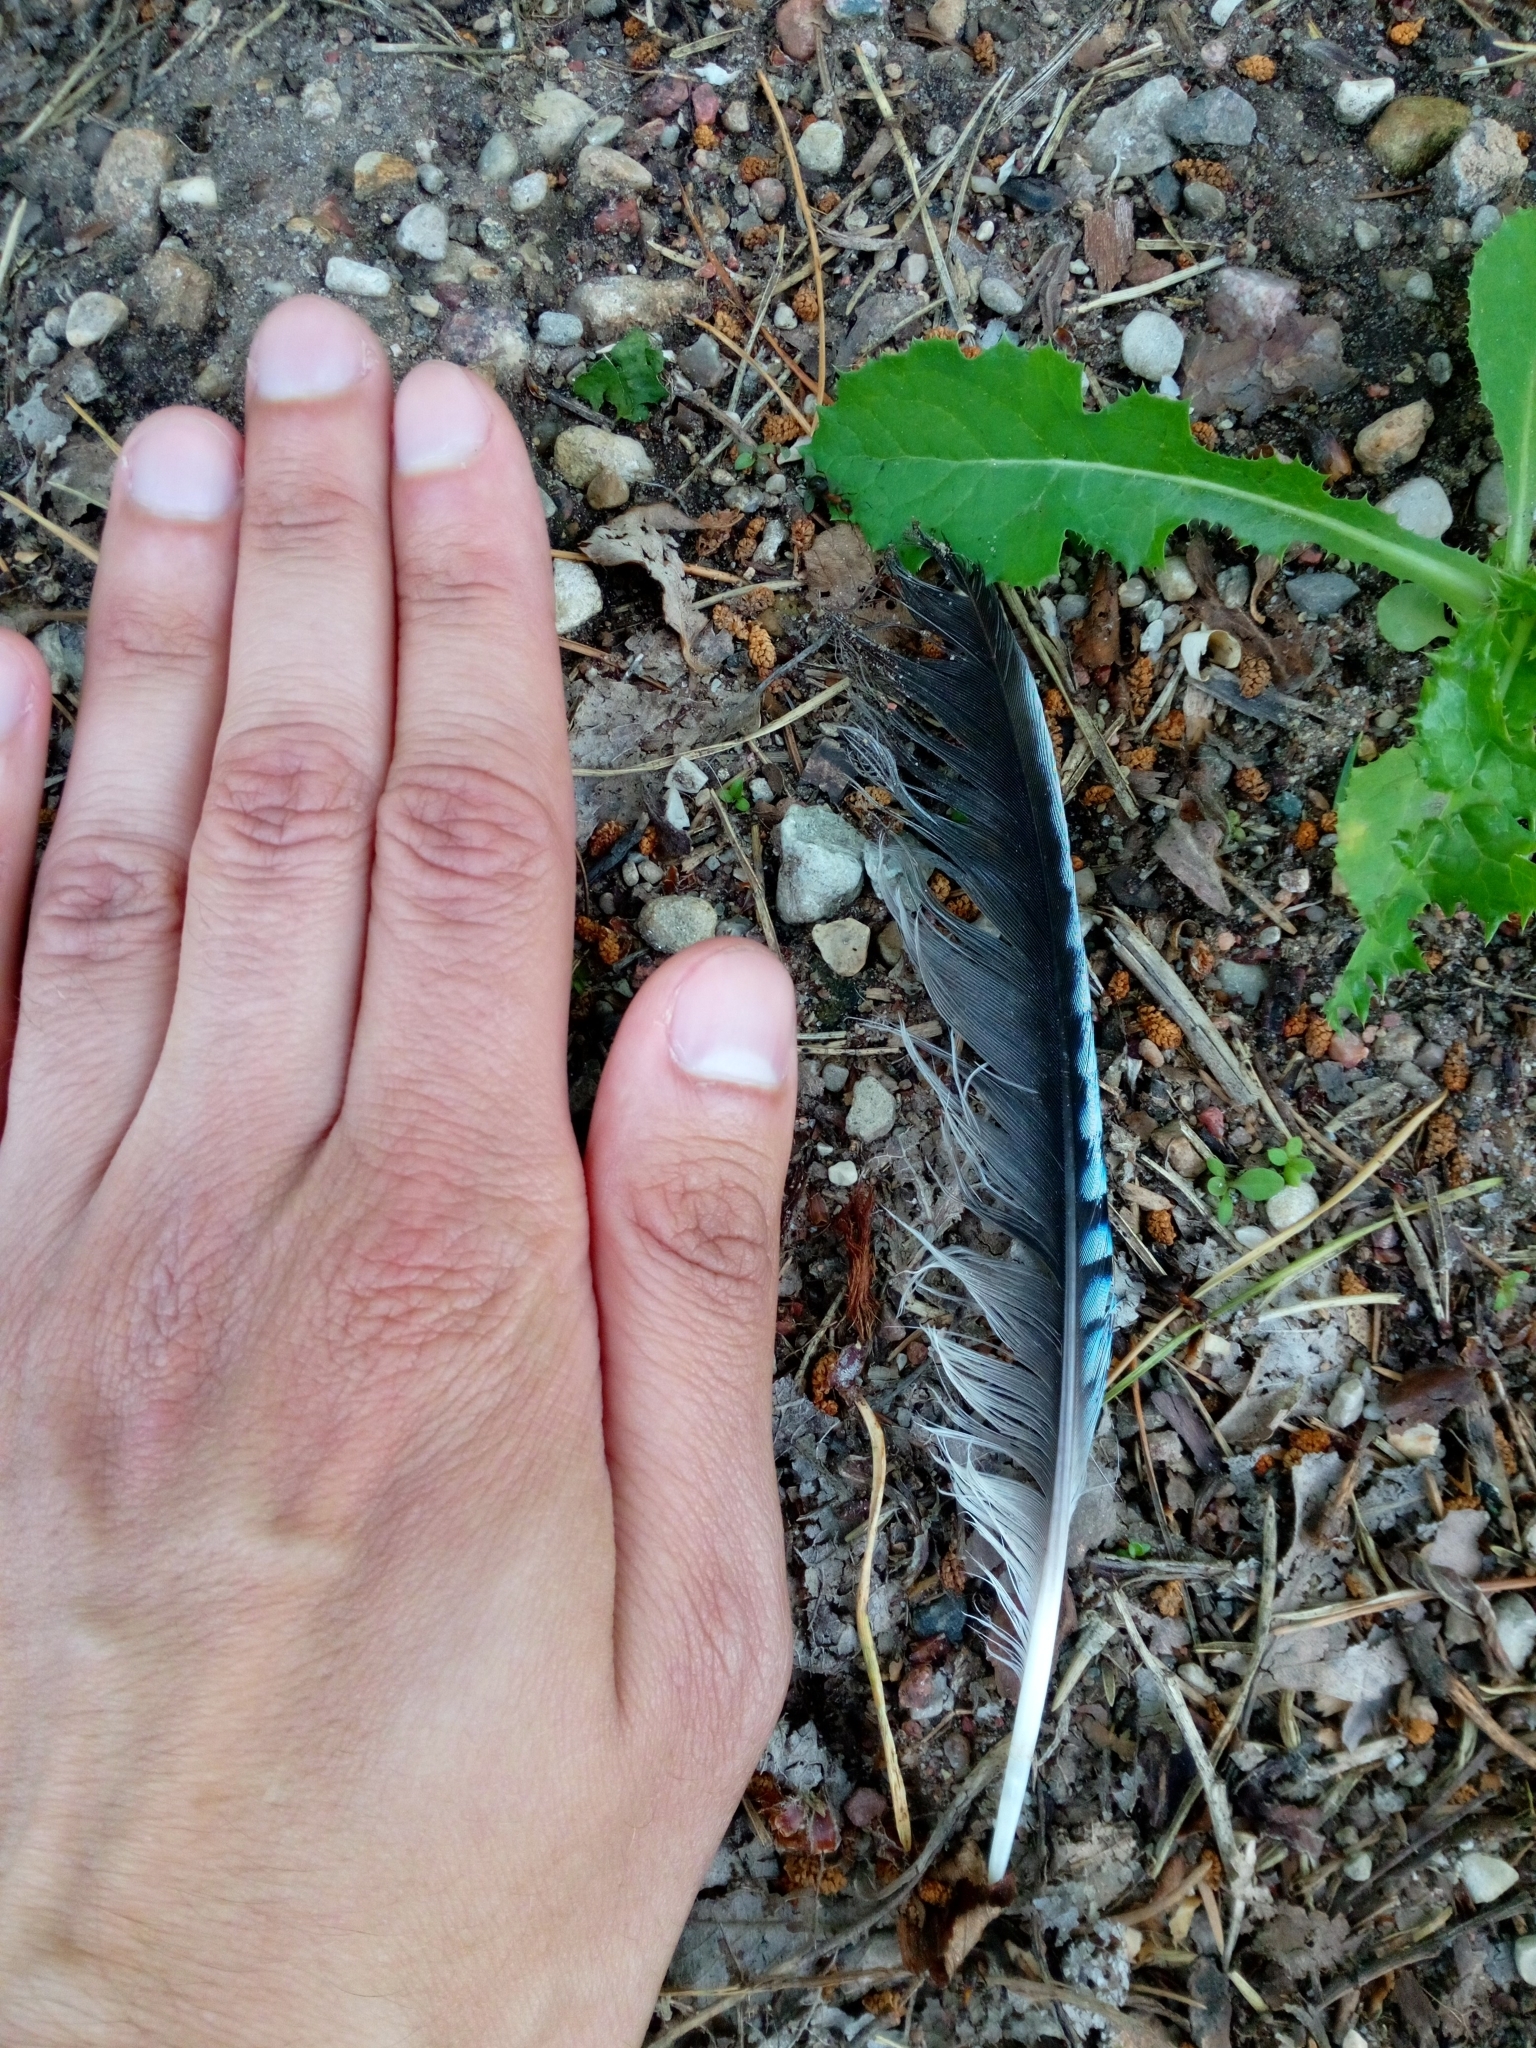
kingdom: Animalia
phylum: Chordata
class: Aves
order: Passeriformes
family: Corvidae
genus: Garrulus
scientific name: Garrulus glandarius
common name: Eurasian jay
